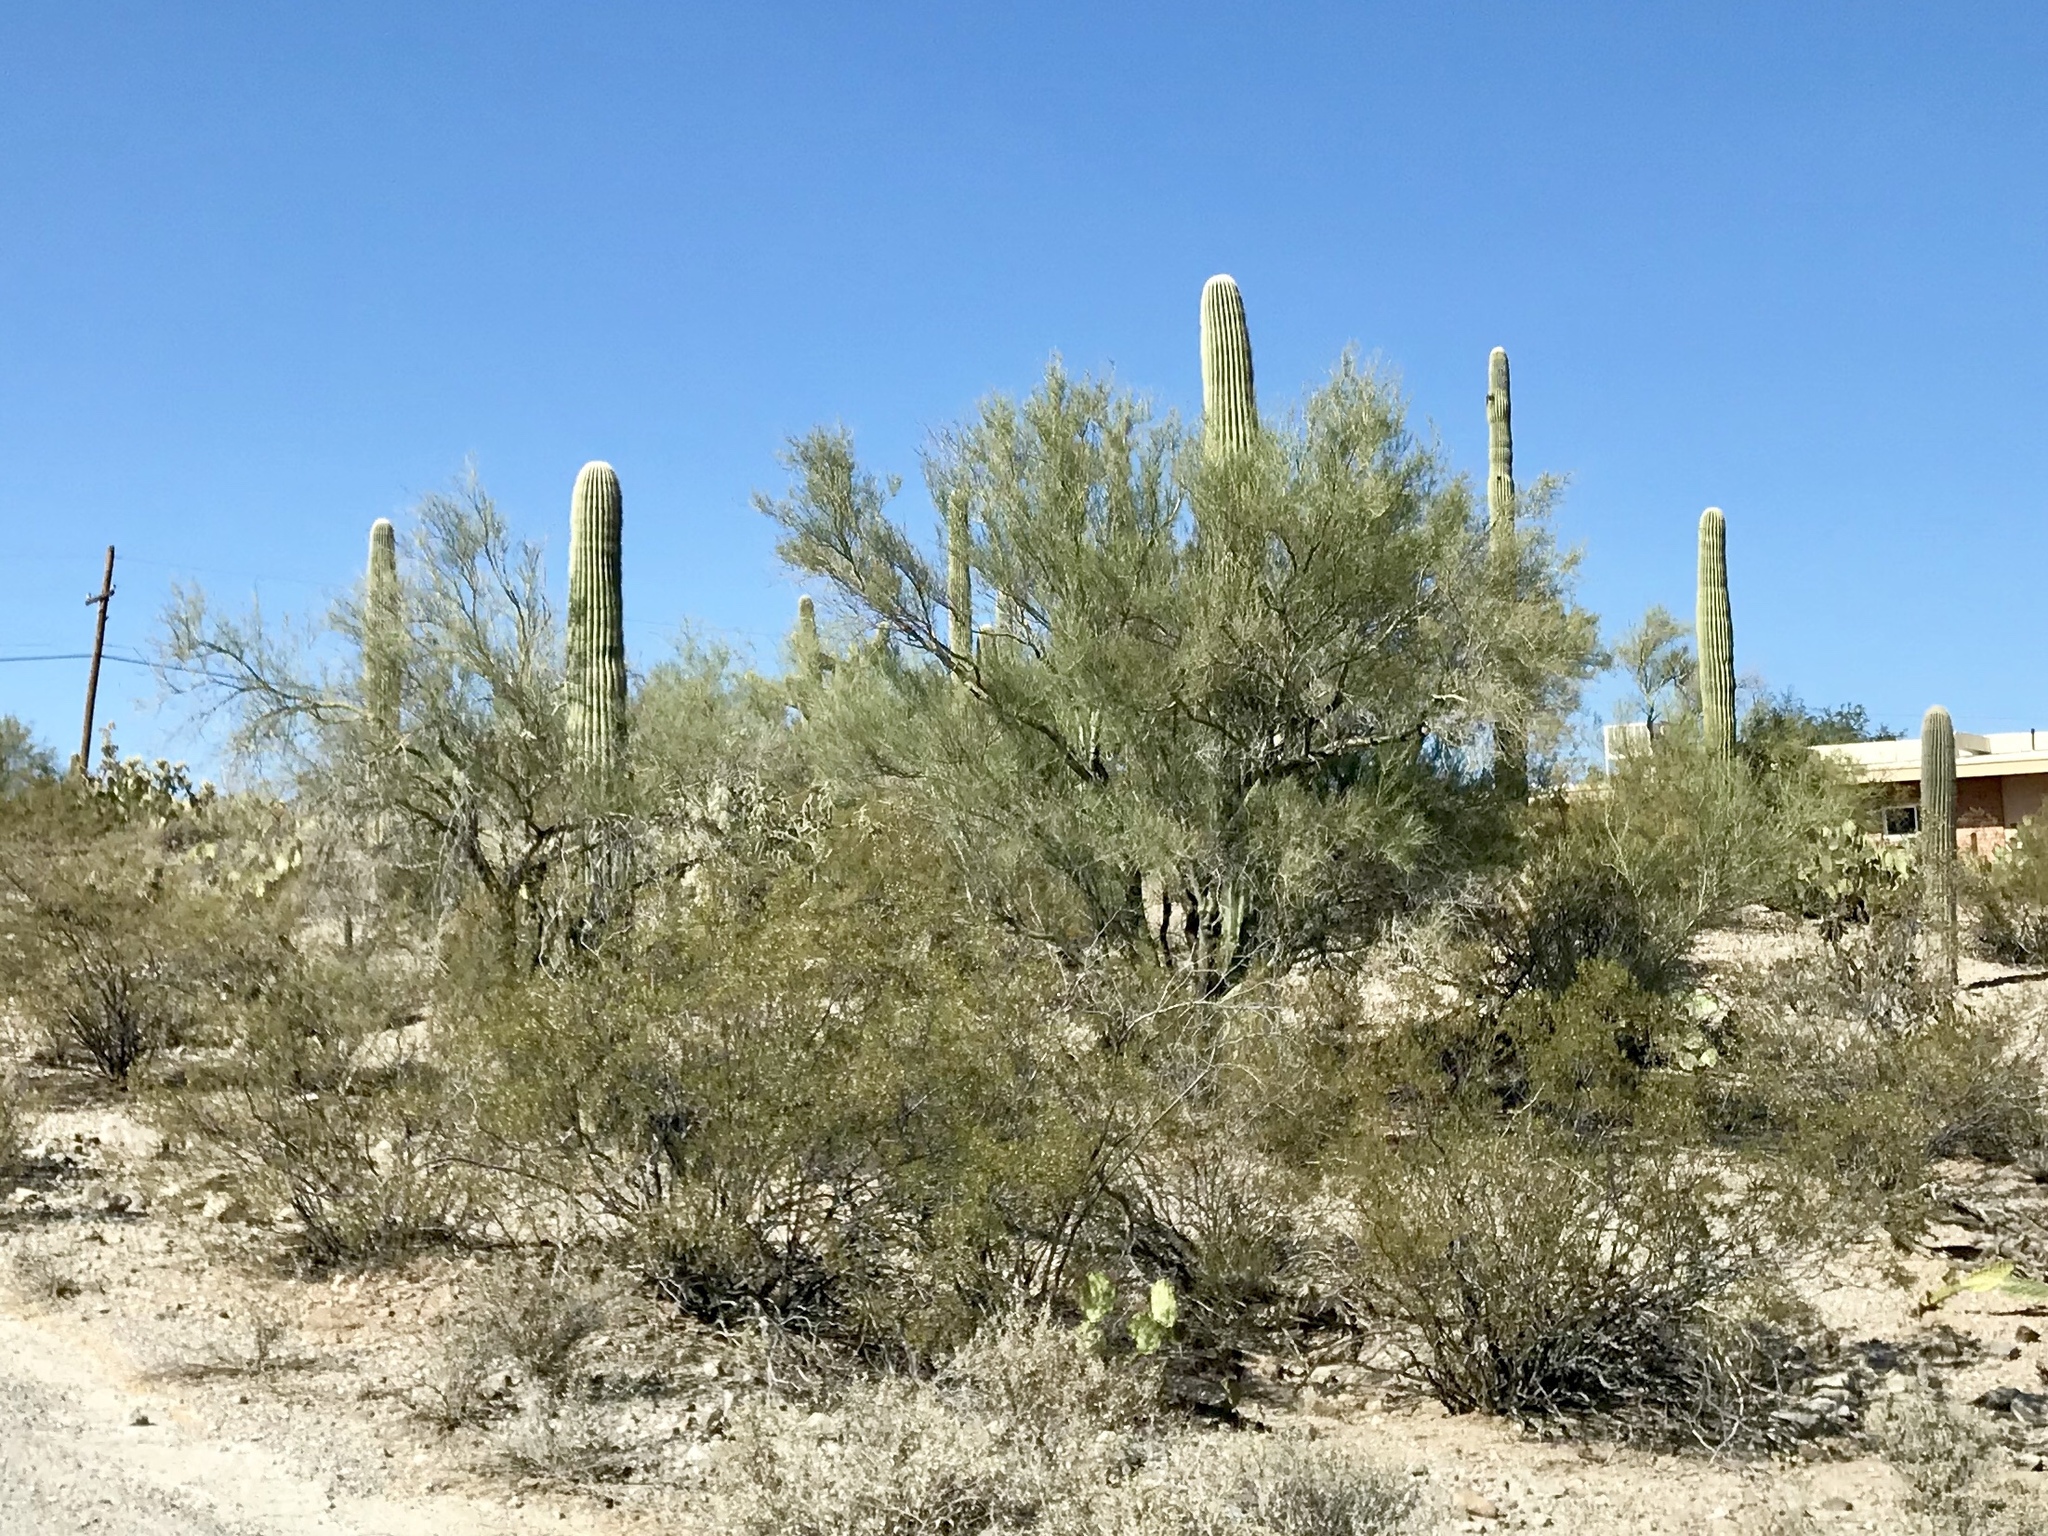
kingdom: Plantae
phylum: Tracheophyta
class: Magnoliopsida
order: Fabales
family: Fabaceae
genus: Parkinsonia
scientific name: Parkinsonia microphylla
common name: Yellow paloverde
